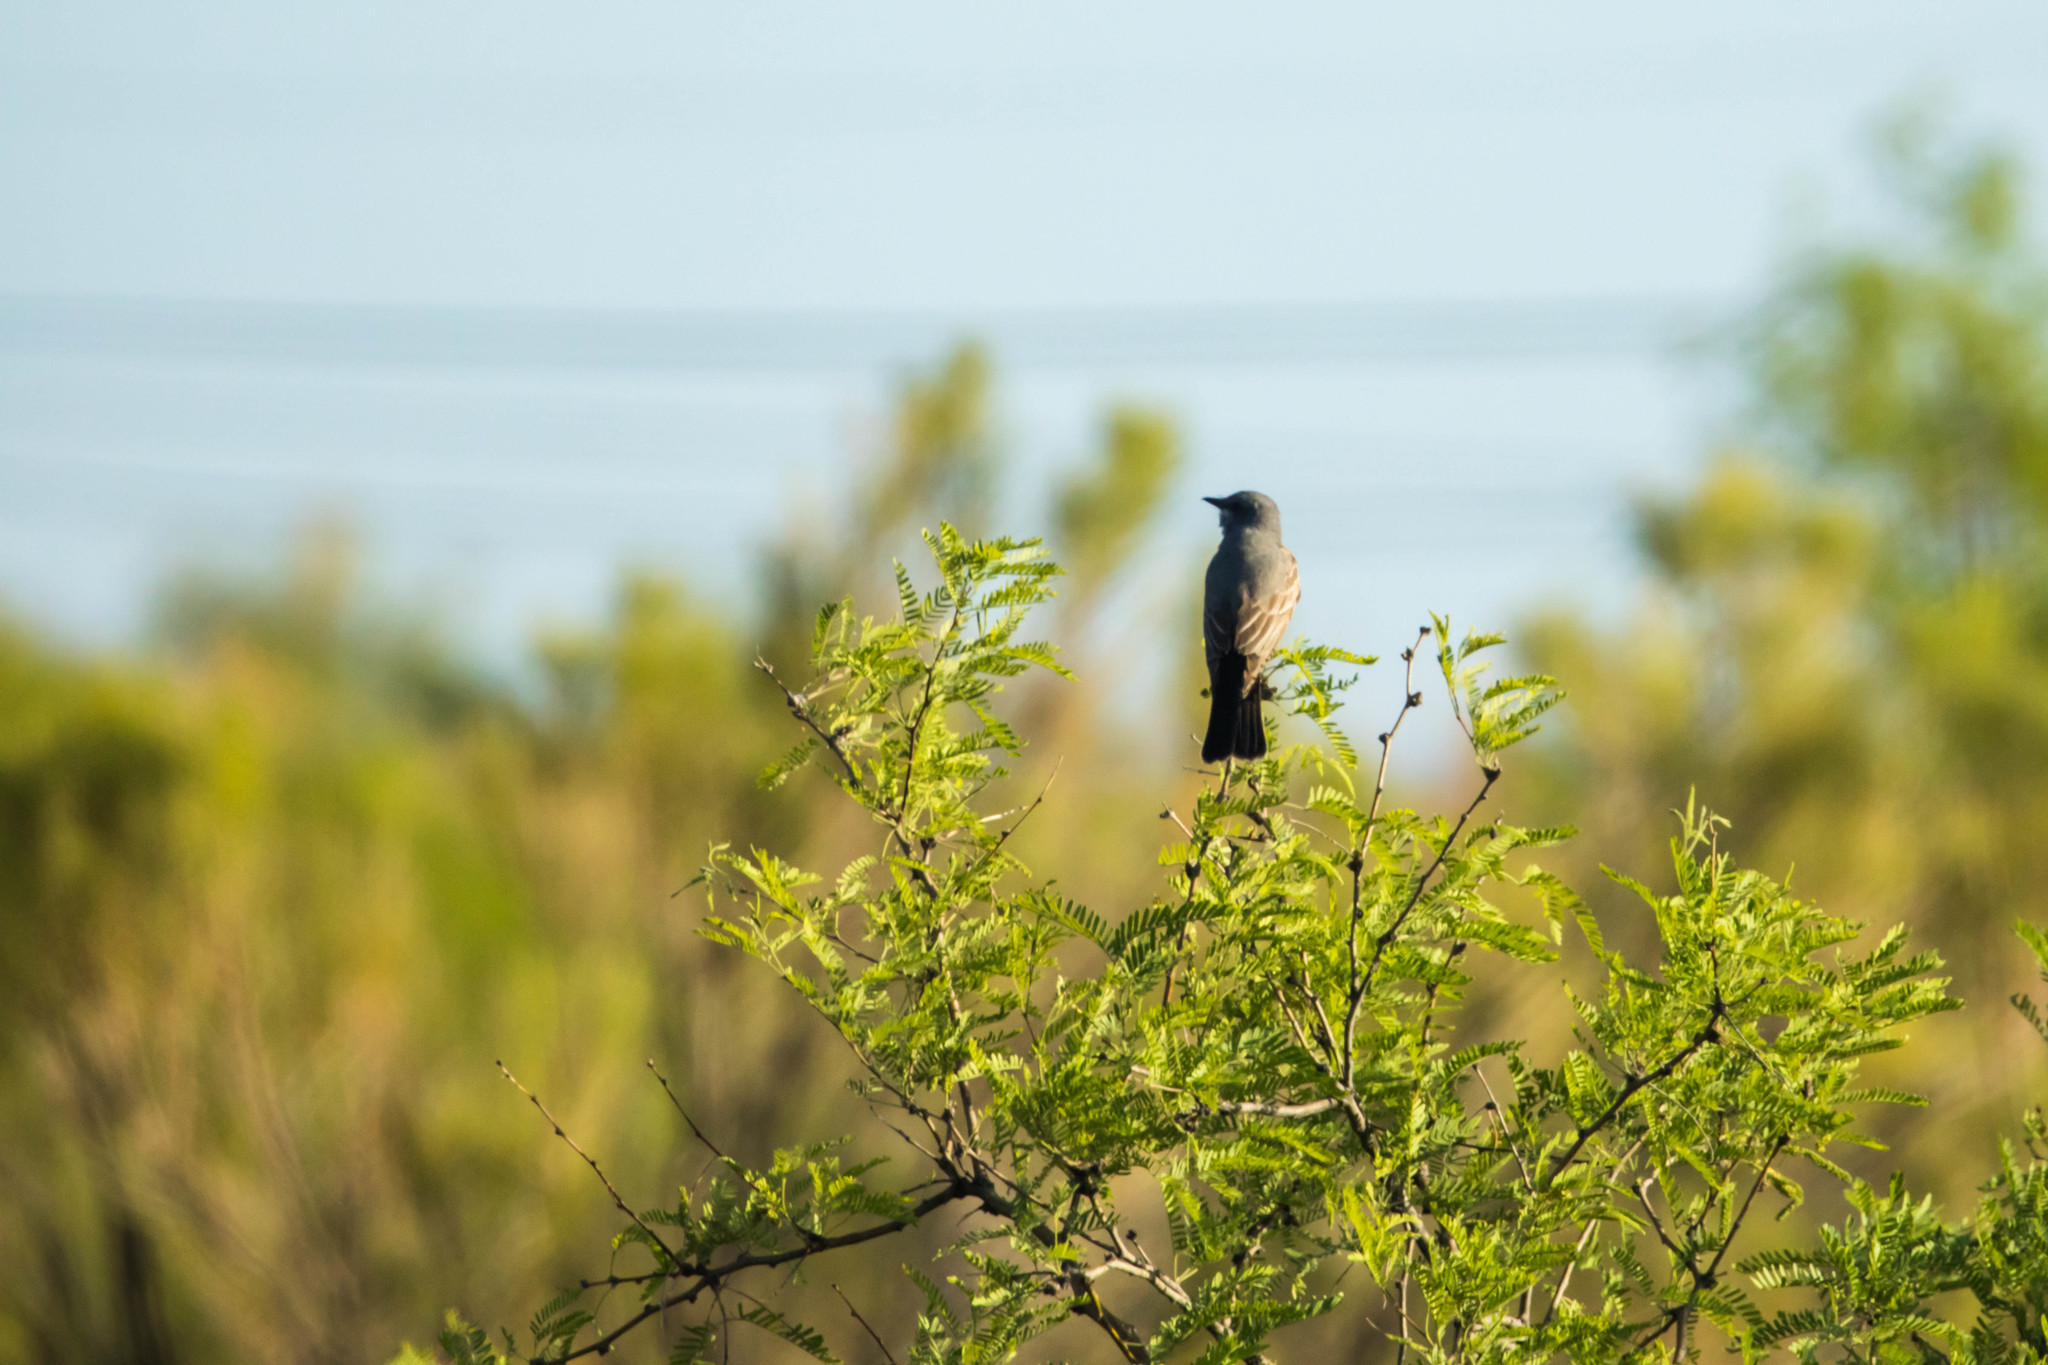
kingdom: Animalia
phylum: Chordata
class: Aves
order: Passeriformes
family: Tyrannidae
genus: Tyrannus
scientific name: Tyrannus vociferans
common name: Cassin's kingbird
